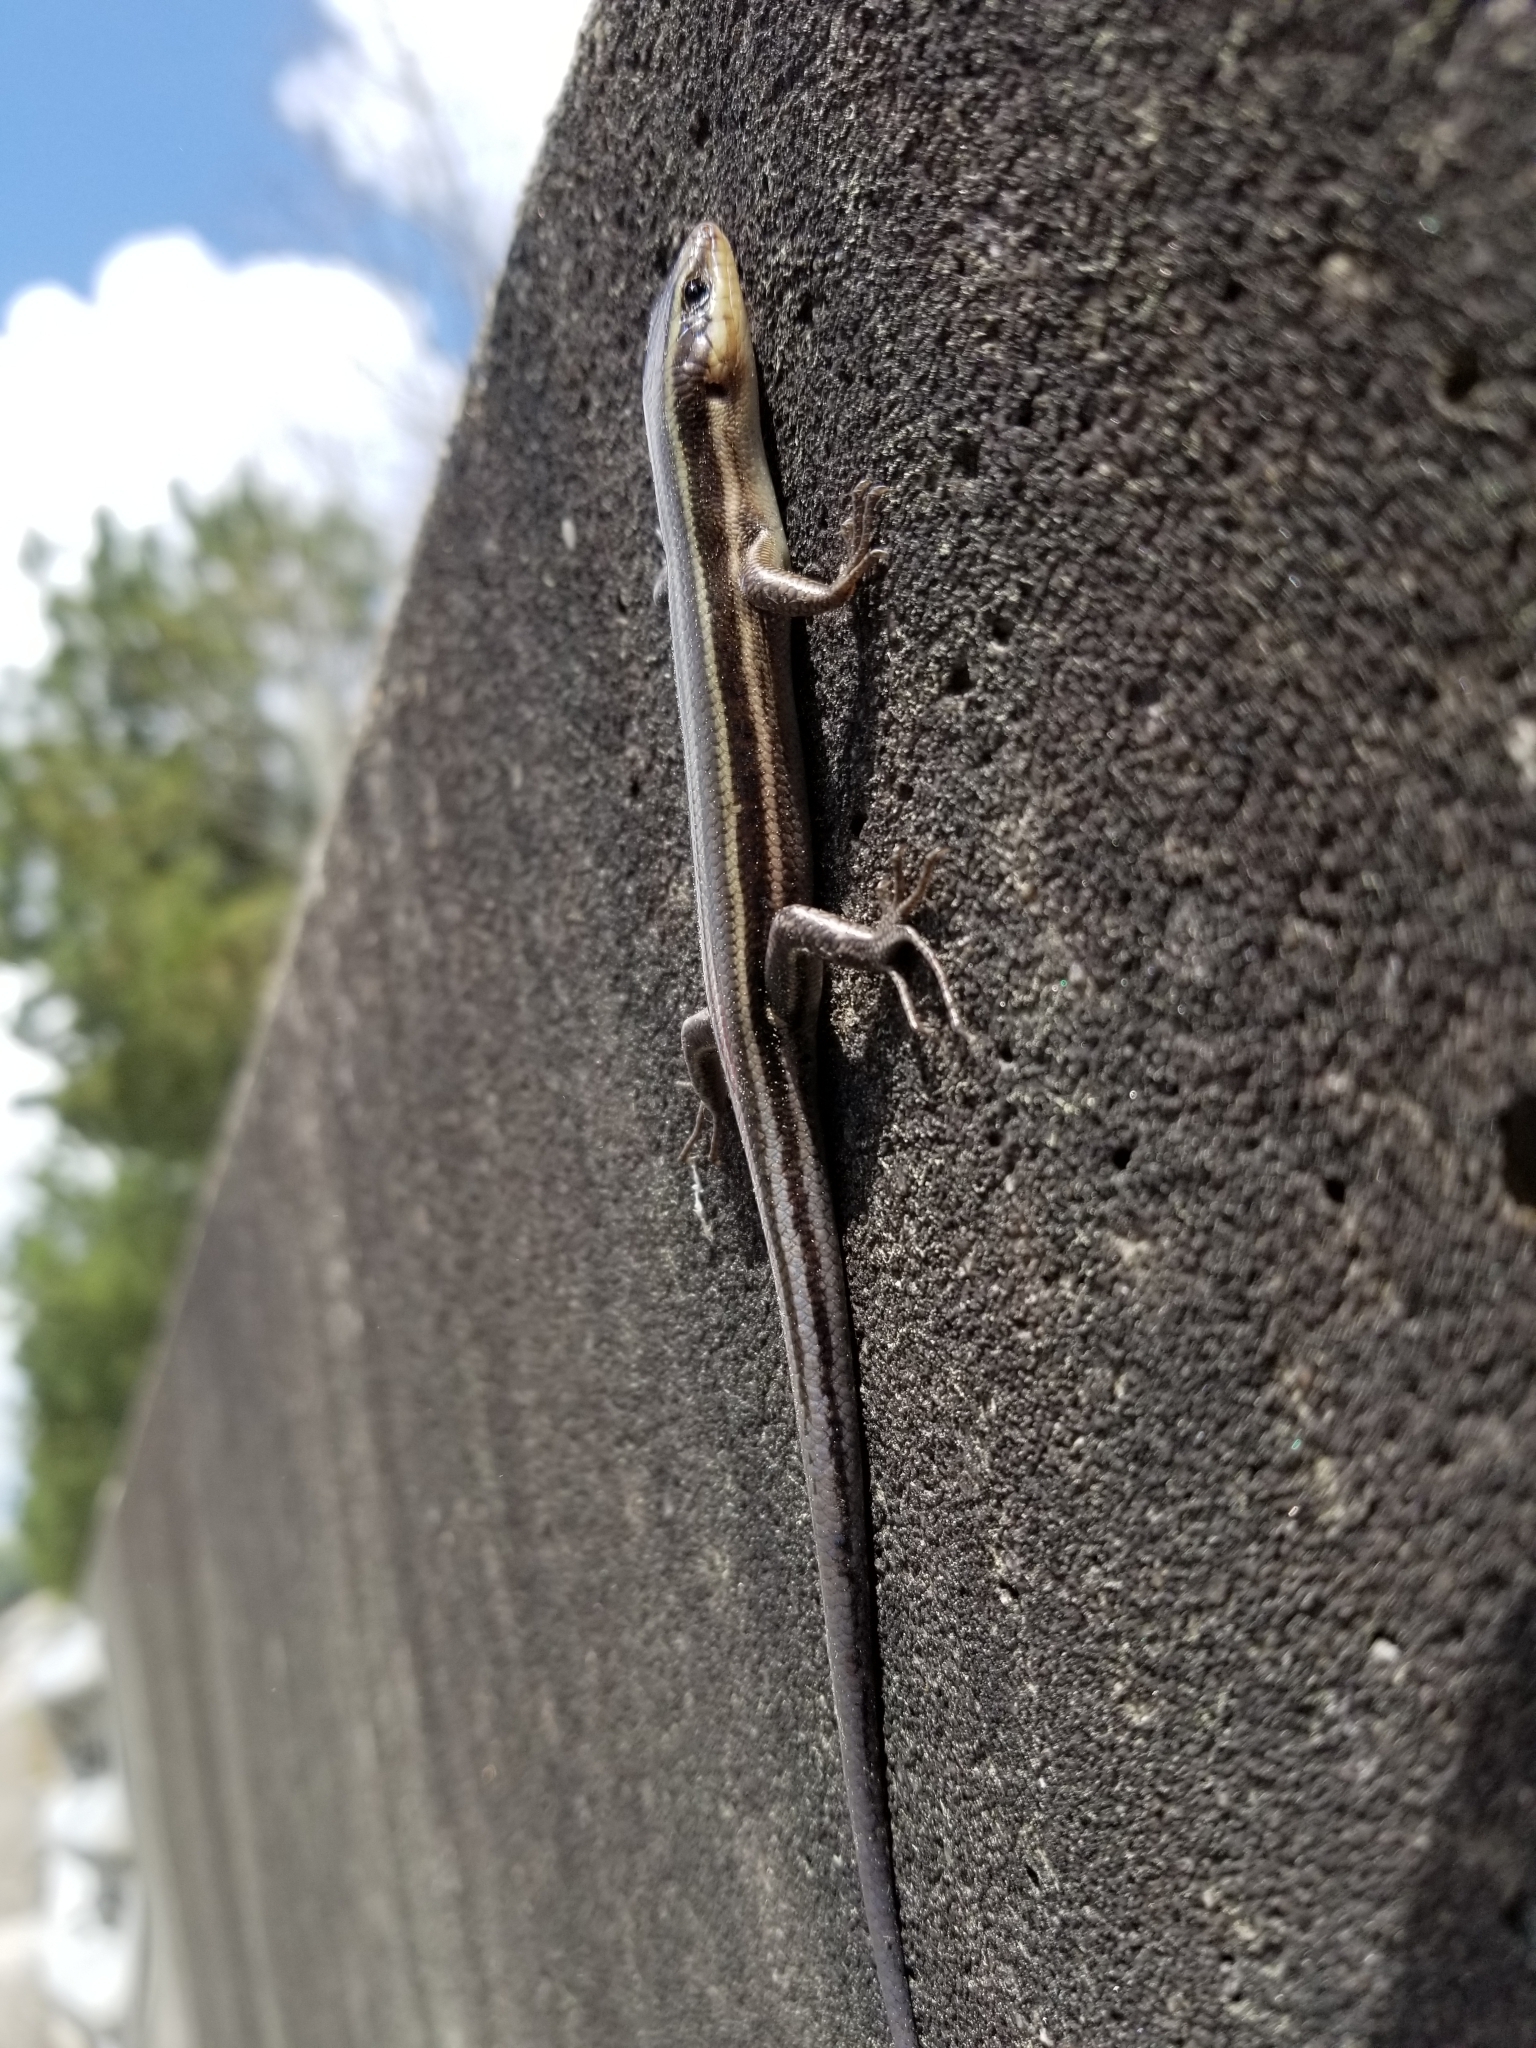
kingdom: Animalia
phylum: Chordata
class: Squamata
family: Scincidae
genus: Plestiodon
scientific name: Plestiodon fasciatus
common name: Five-lined skink
